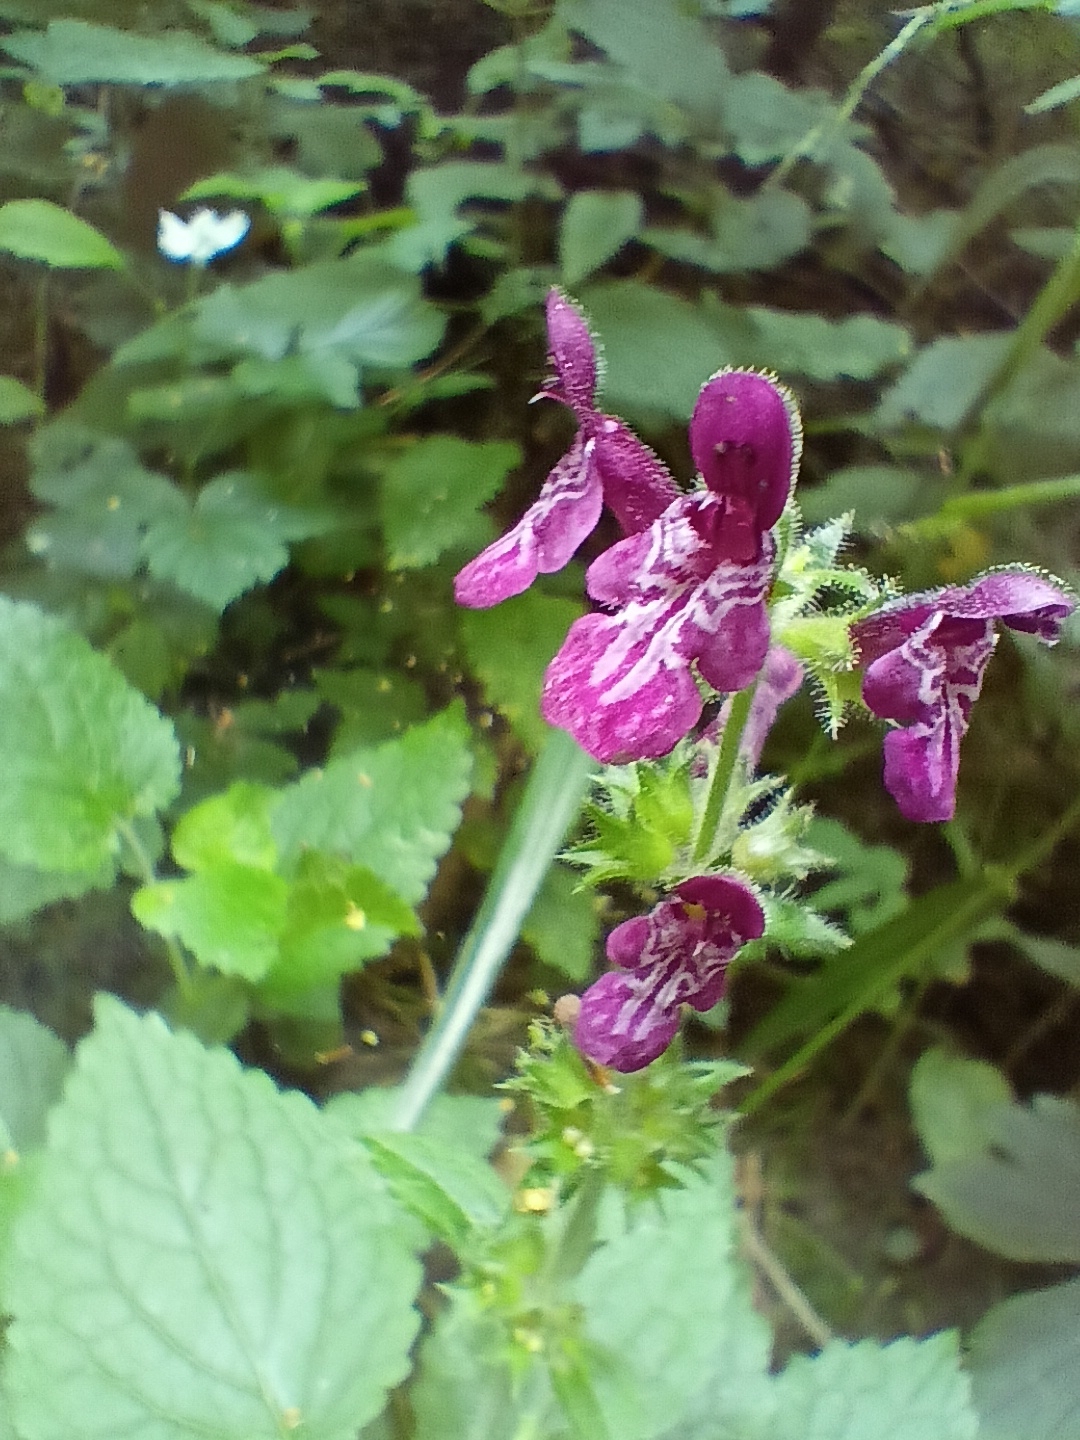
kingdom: Plantae
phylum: Tracheophyta
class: Magnoliopsida
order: Lamiales
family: Lamiaceae
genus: Stachys
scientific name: Stachys sylvatica
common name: Hedge woundwort
